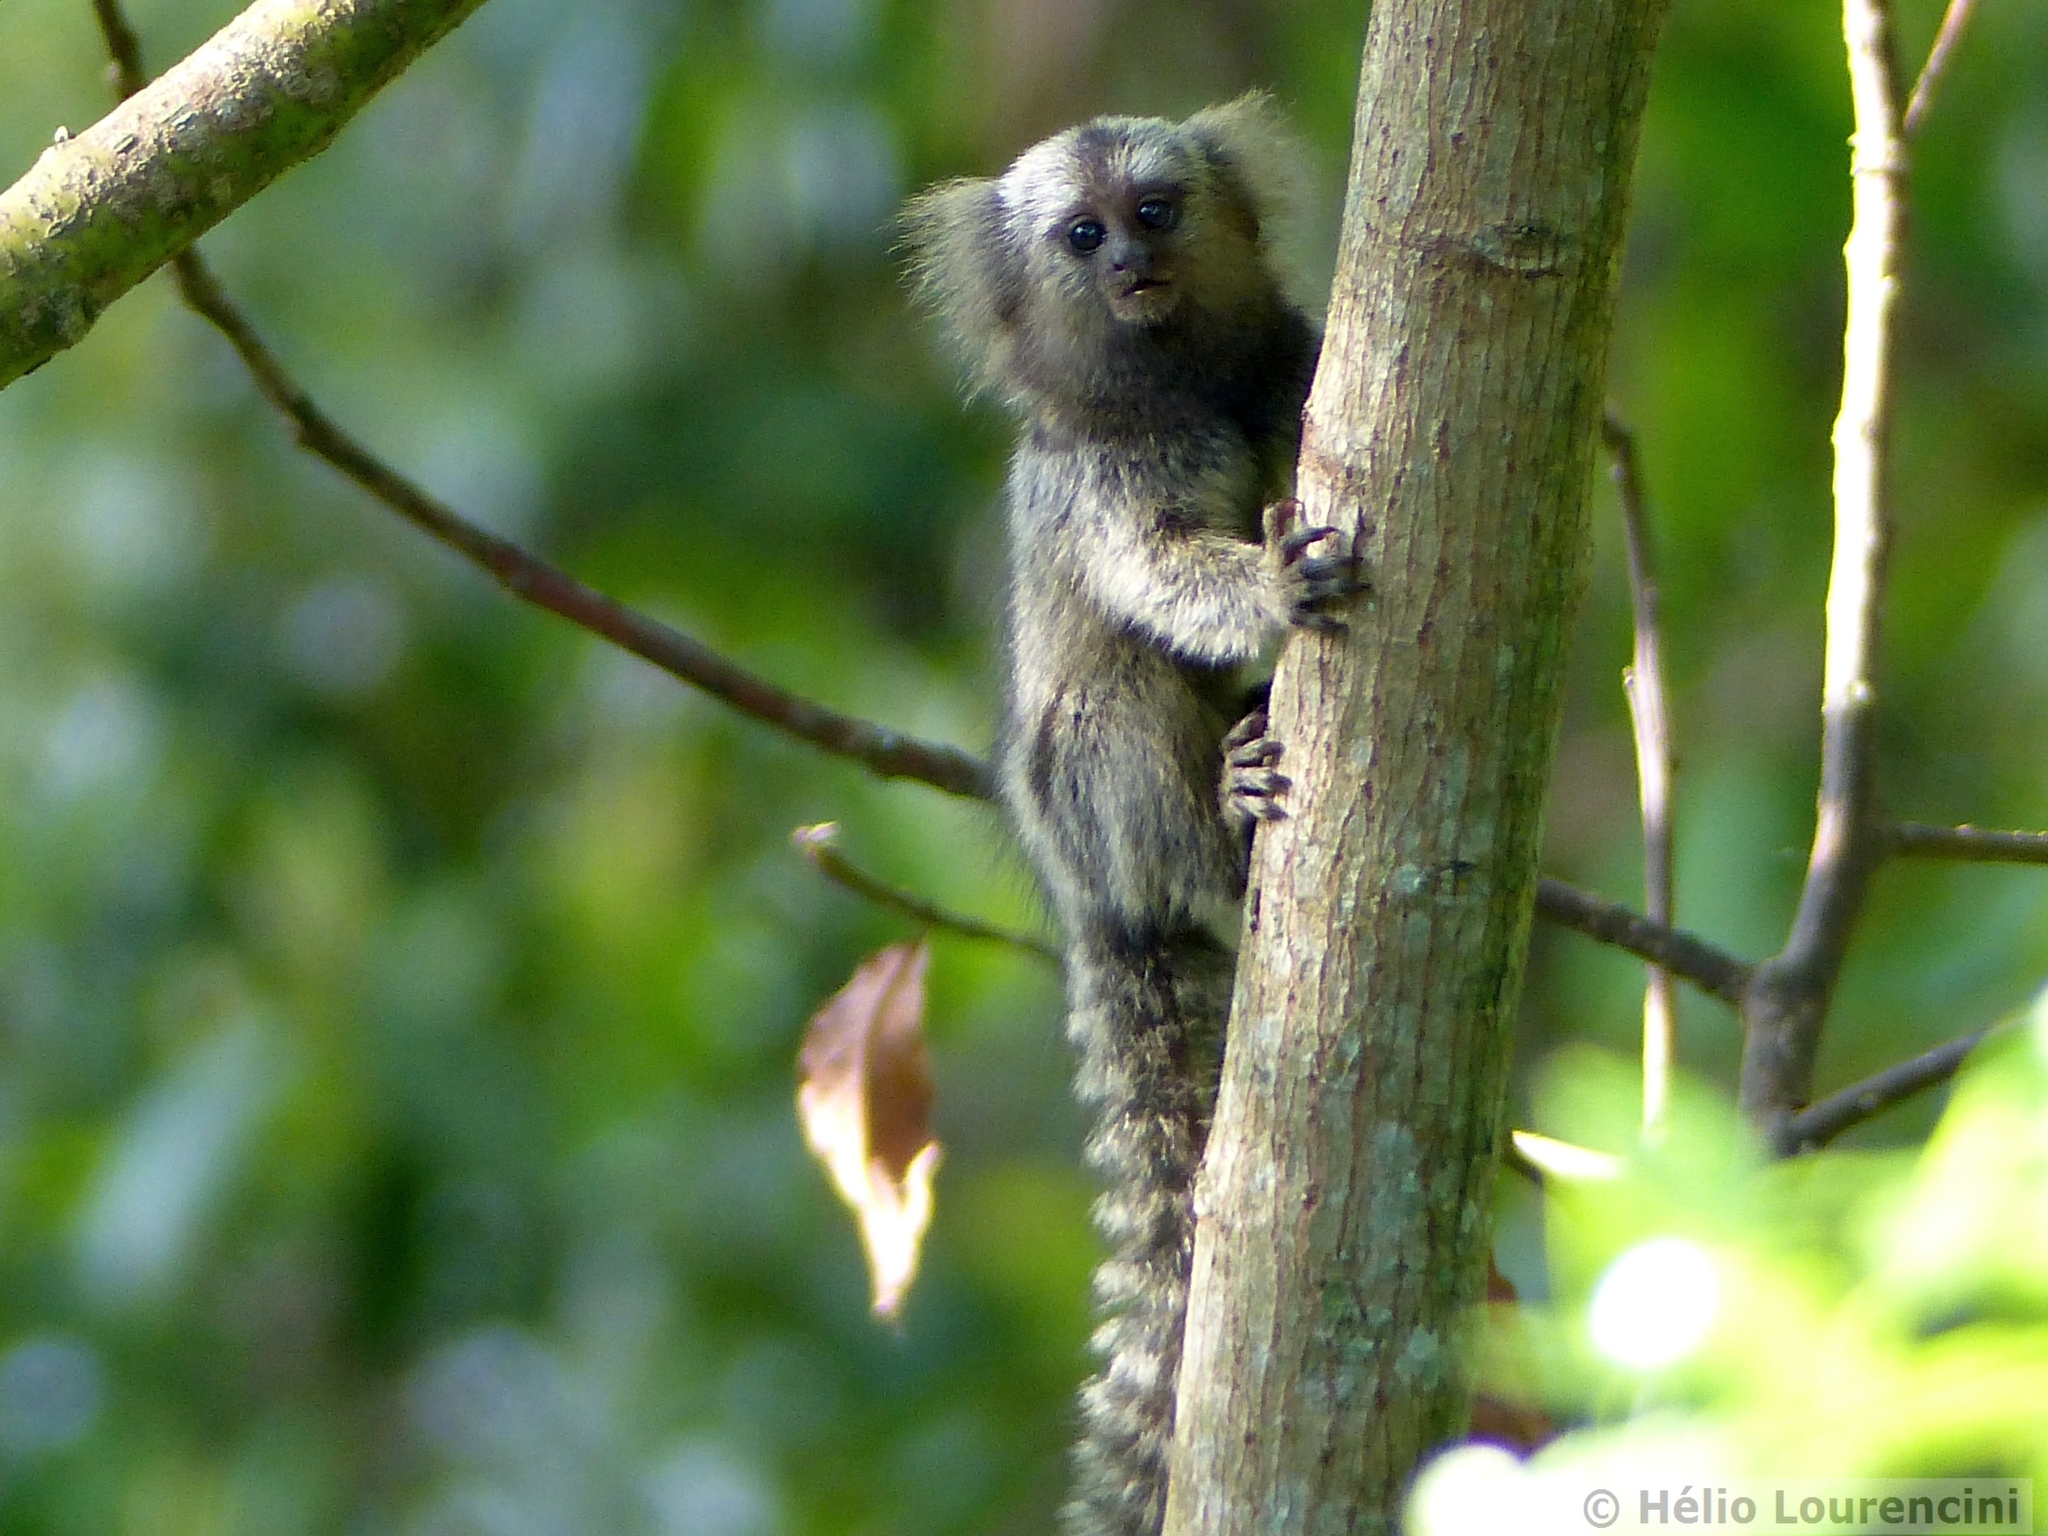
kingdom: Animalia
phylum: Chordata
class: Mammalia
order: Primates
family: Callitrichidae
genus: Callithrix
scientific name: Callithrix jacchus
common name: Common marmoset
